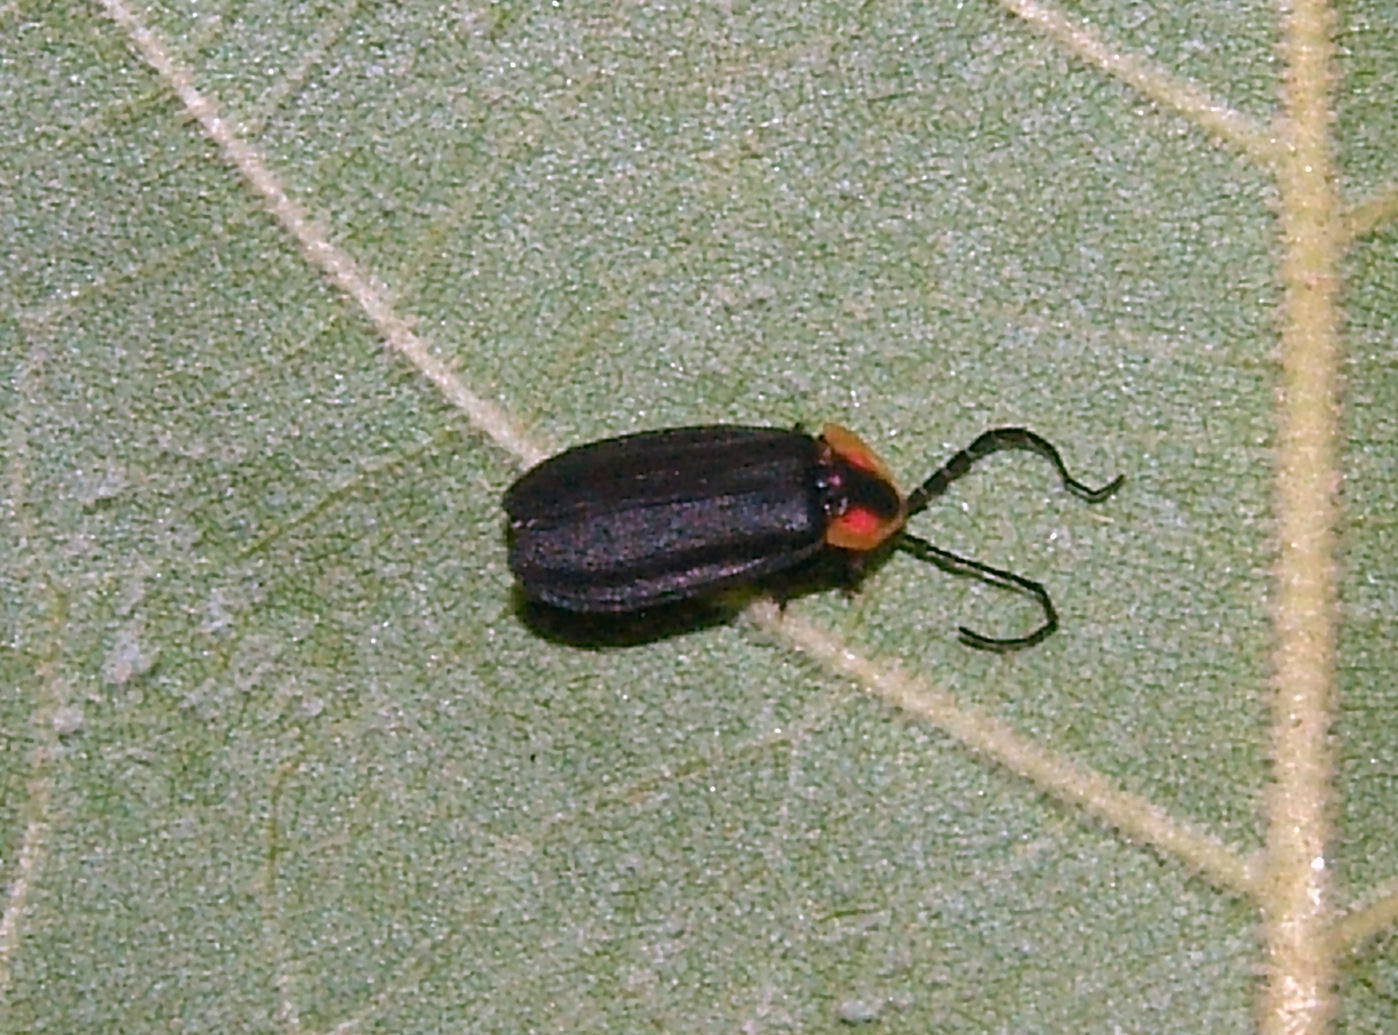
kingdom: Animalia
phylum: Arthropoda
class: Insecta
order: Coleoptera
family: Lampyridae
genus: Lucidota
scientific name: Lucidota atra
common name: Black firefly
